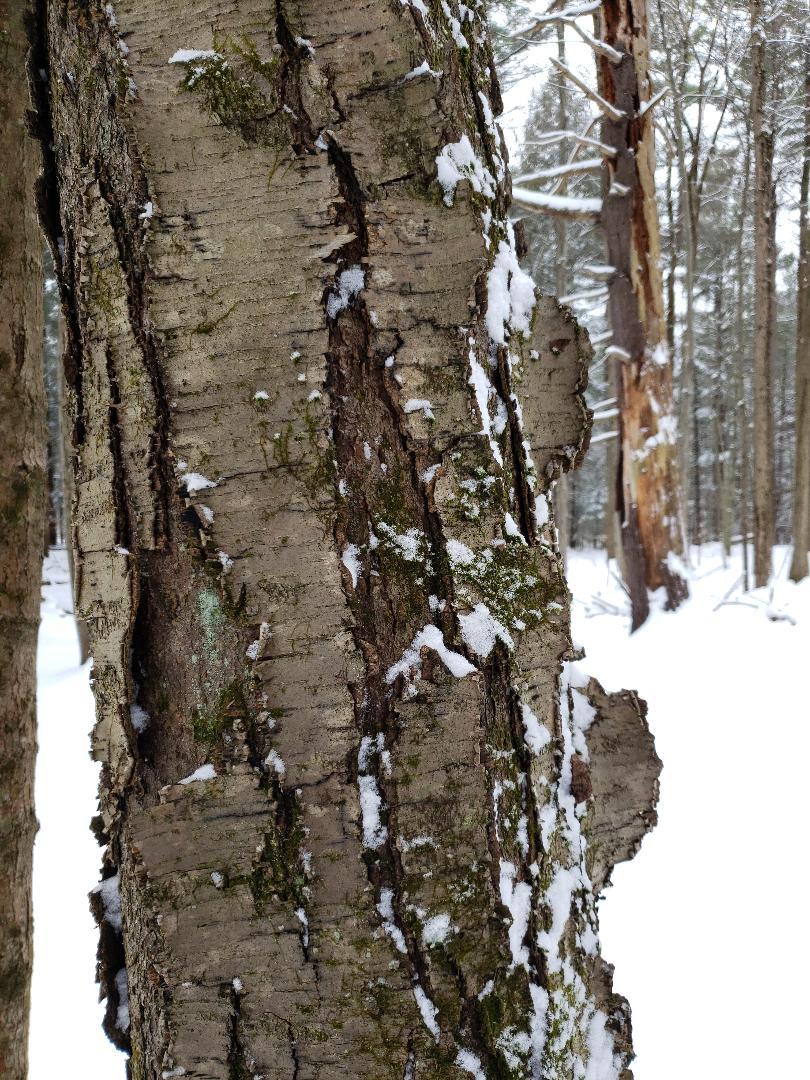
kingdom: Plantae
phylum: Tracheophyta
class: Magnoliopsida
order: Fagales
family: Betulaceae
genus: Betula
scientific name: Betula lenta
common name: Black birch
